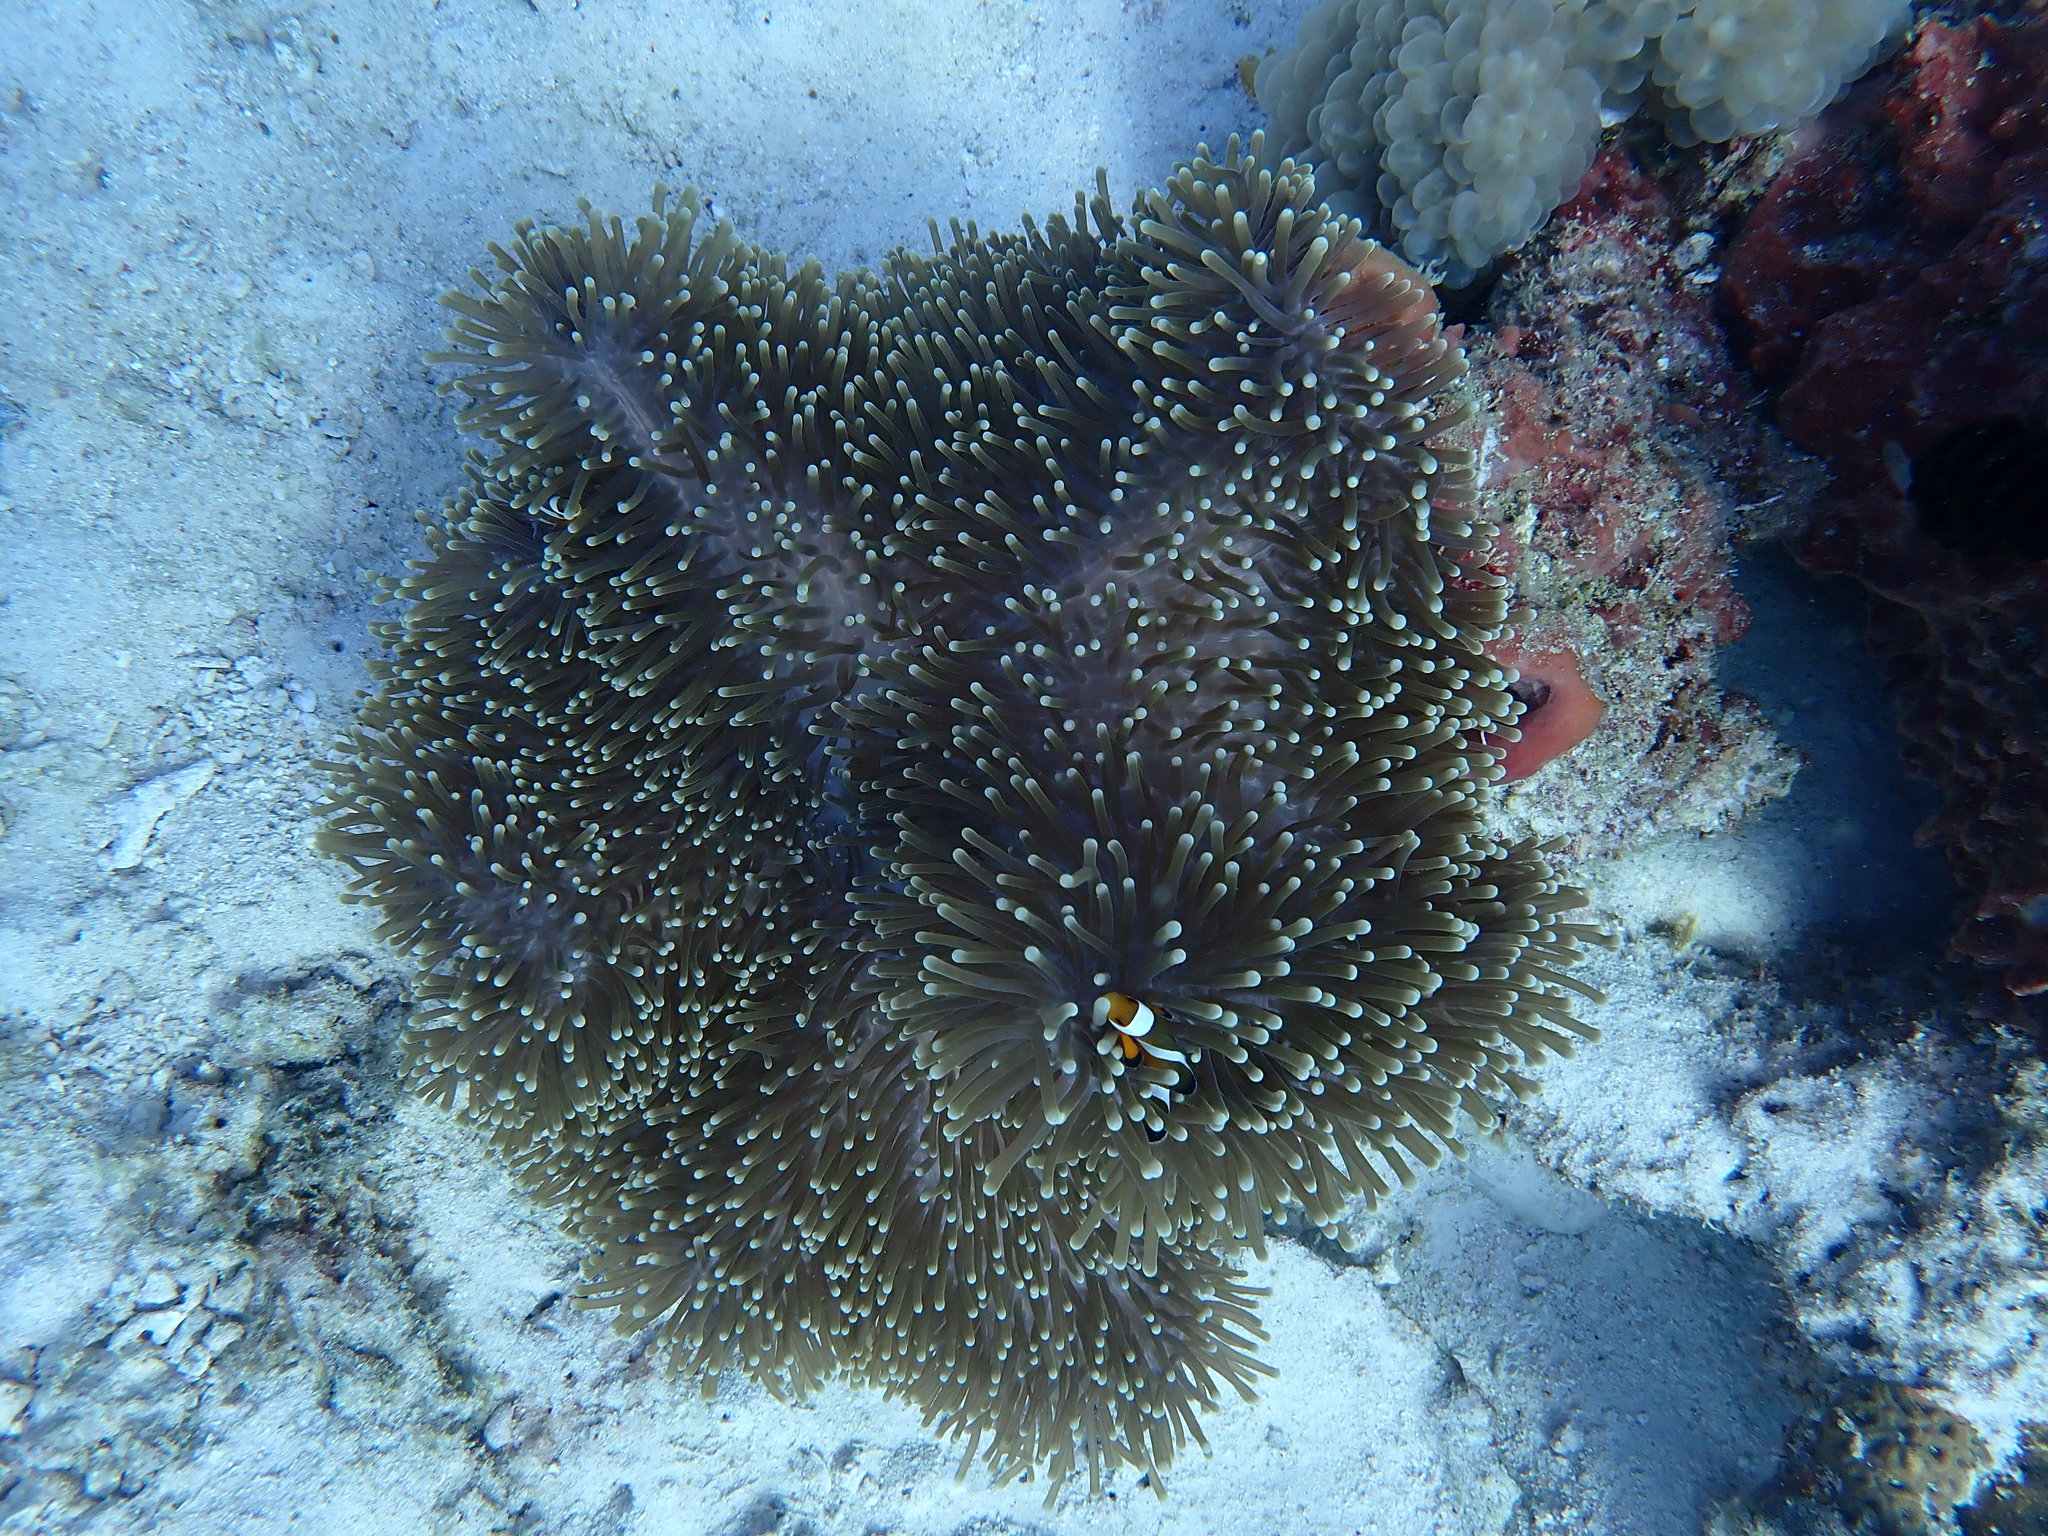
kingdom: Animalia
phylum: Cnidaria
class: Anthozoa
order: Actiniaria
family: Stichodactylidae
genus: Radianthus
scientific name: Radianthus magnifica
